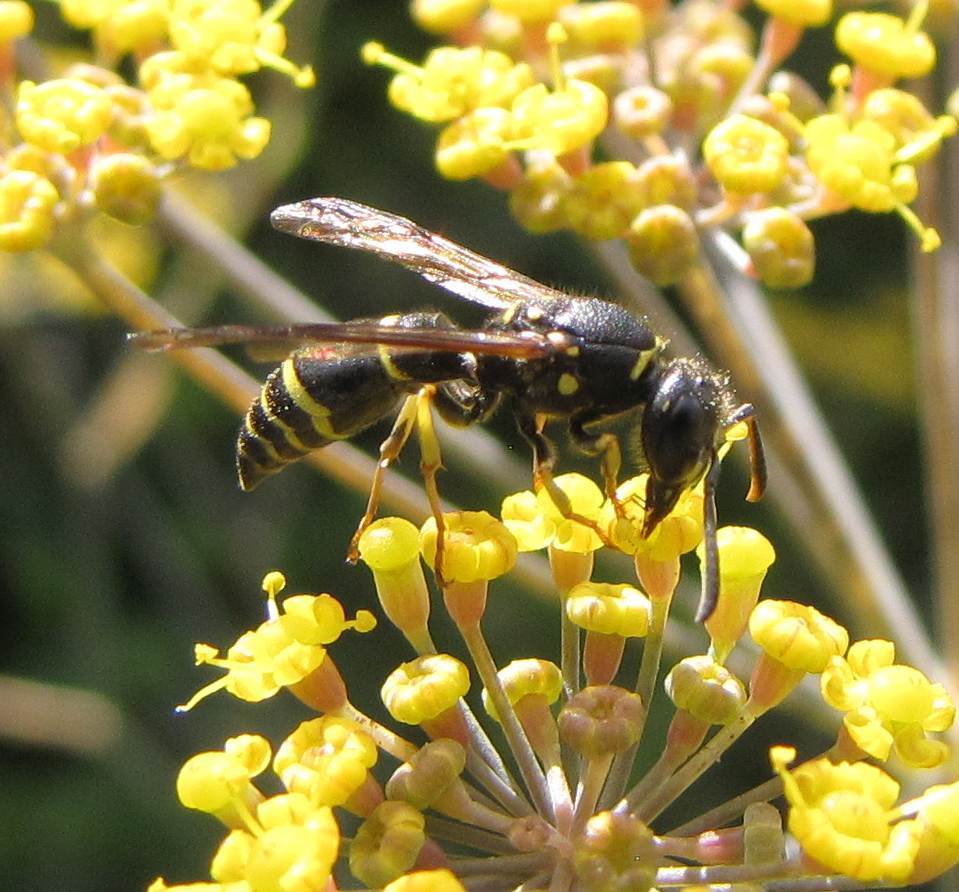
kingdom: Animalia
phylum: Arthropoda
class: Insecta
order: Hymenoptera
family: Vespidae
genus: Ancistrocerus
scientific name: Ancistrocerus adiabatus
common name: Bramble mason wasp
